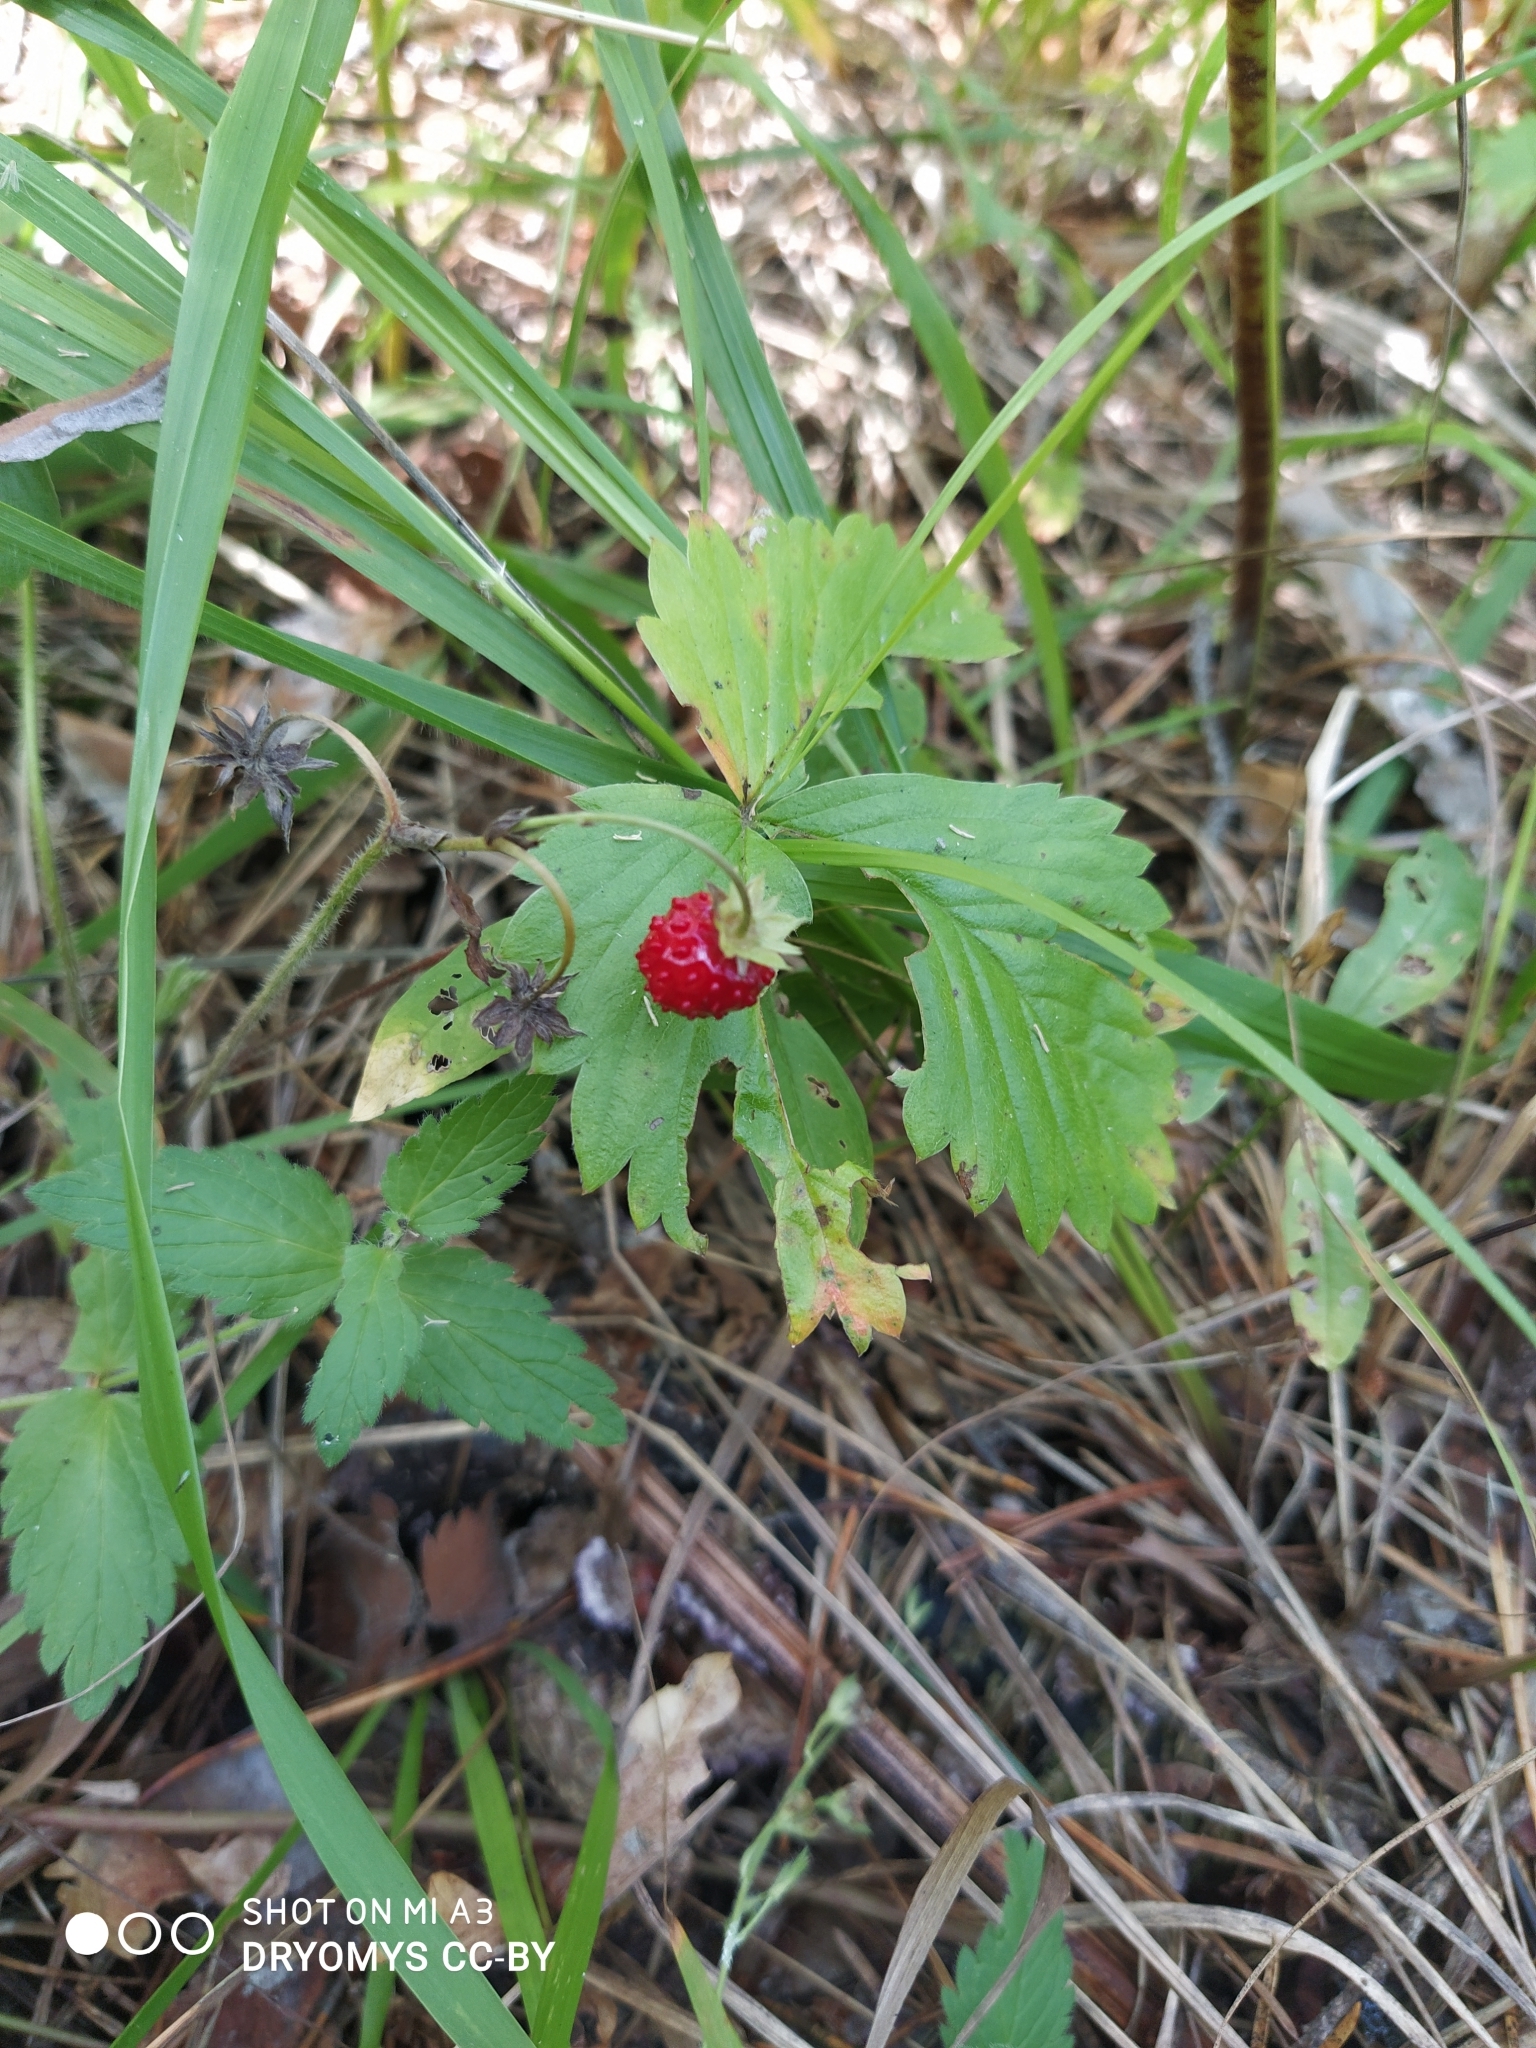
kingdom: Plantae
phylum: Tracheophyta
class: Magnoliopsida
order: Rosales
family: Rosaceae
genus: Fragaria
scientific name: Fragaria vesca
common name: Wild strawberry
